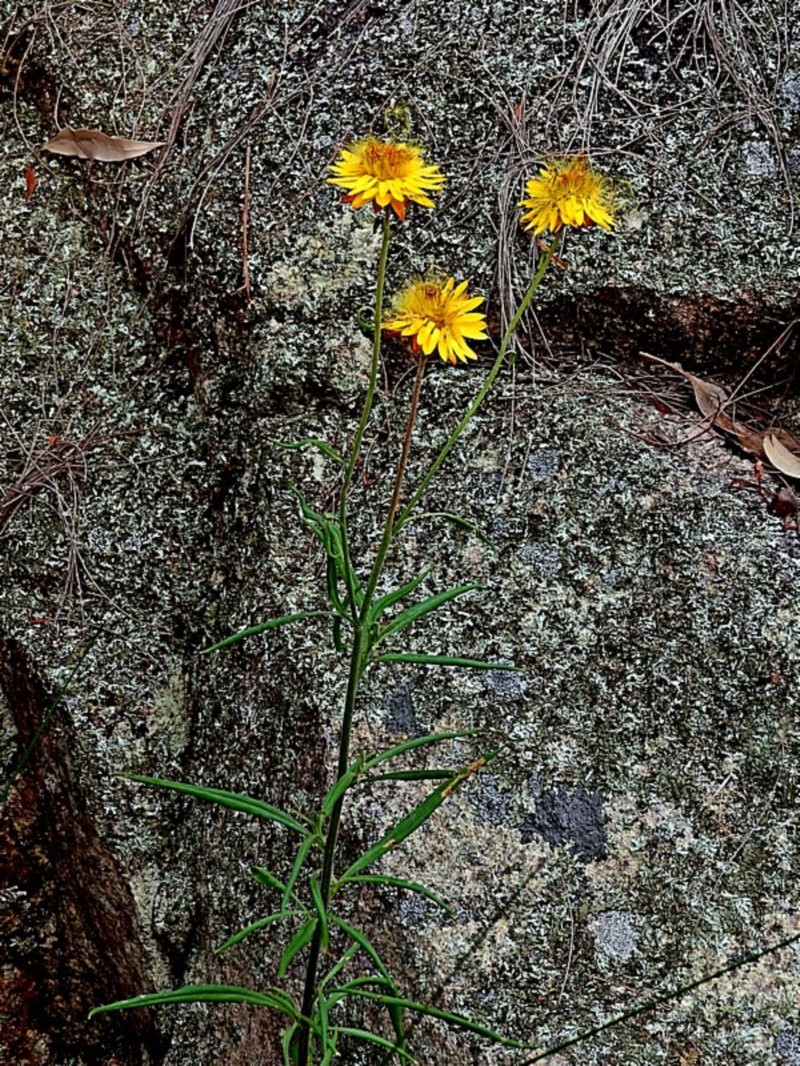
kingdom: Plantae
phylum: Tracheophyta
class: Magnoliopsida
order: Asterales
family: Asteraceae
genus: Xerochrysum
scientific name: Xerochrysum bracteatum
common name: Bracted strawflower
